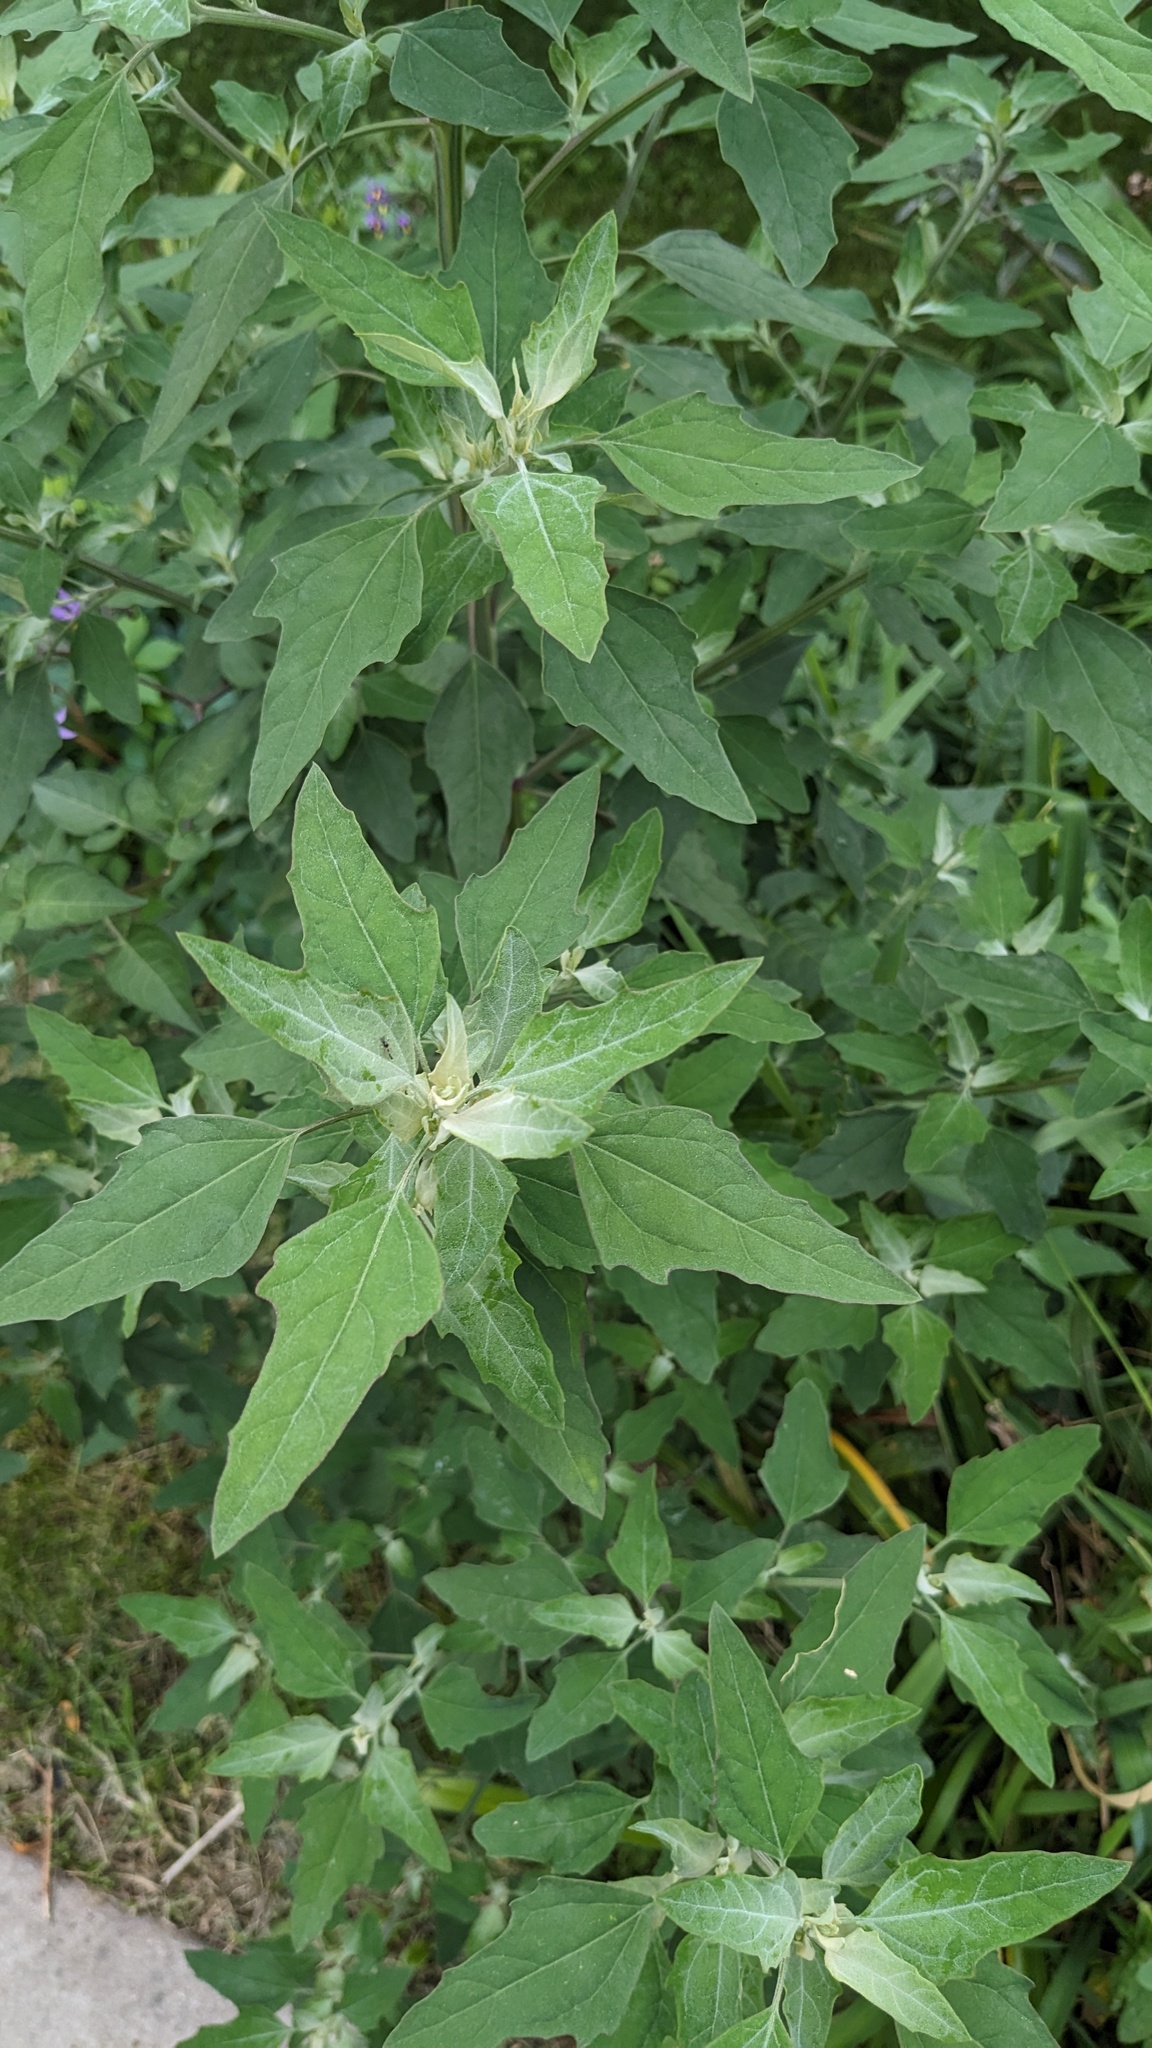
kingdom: Plantae
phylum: Tracheophyta
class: Magnoliopsida
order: Caryophyllales
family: Amaranthaceae
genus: Chenopodium
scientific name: Chenopodium album
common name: Fat-hen
